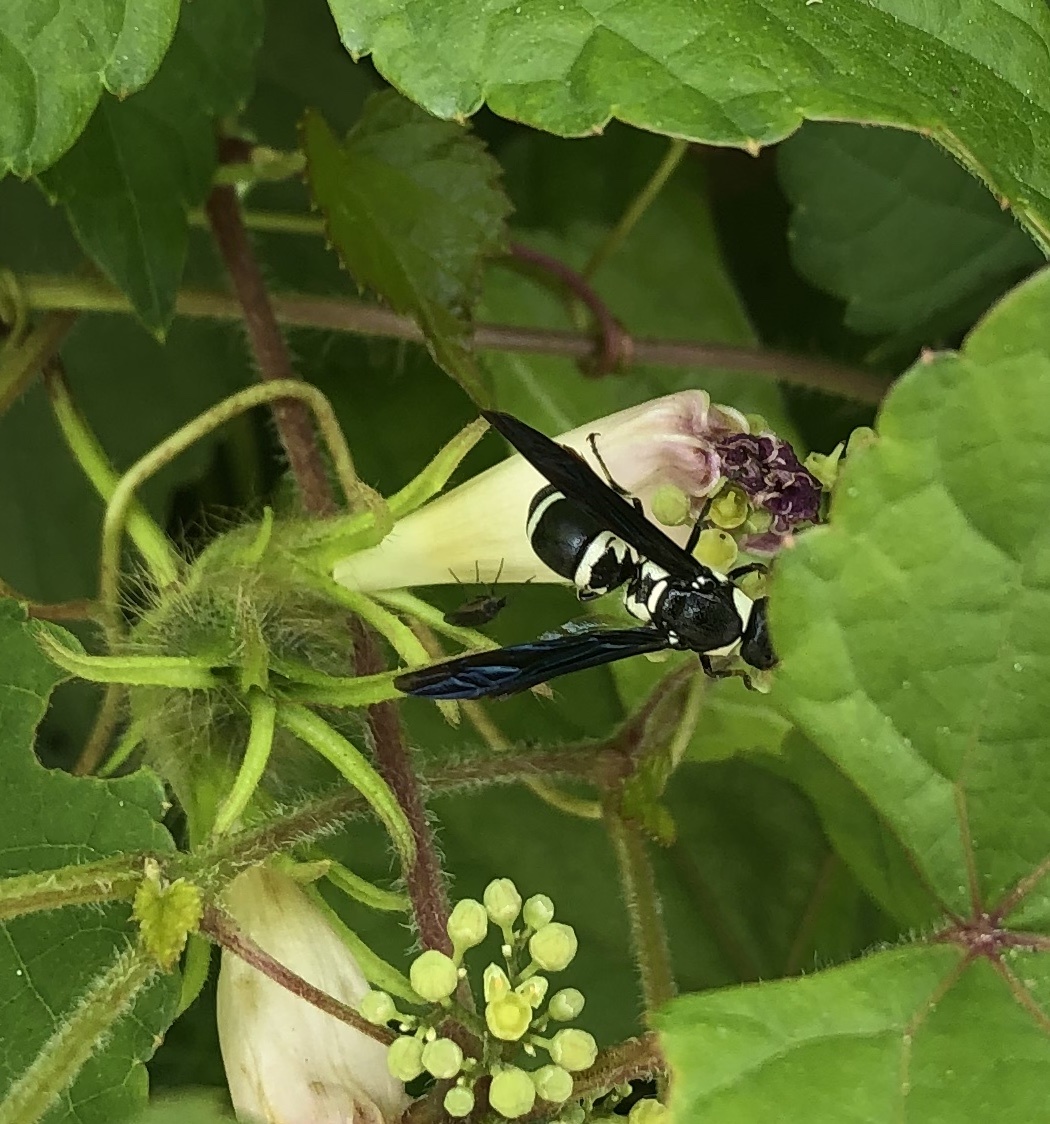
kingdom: Animalia
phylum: Arthropoda
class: Insecta
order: Hymenoptera
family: Eumenidae
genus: Pseudodynerus
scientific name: Pseudodynerus quadrisectus
